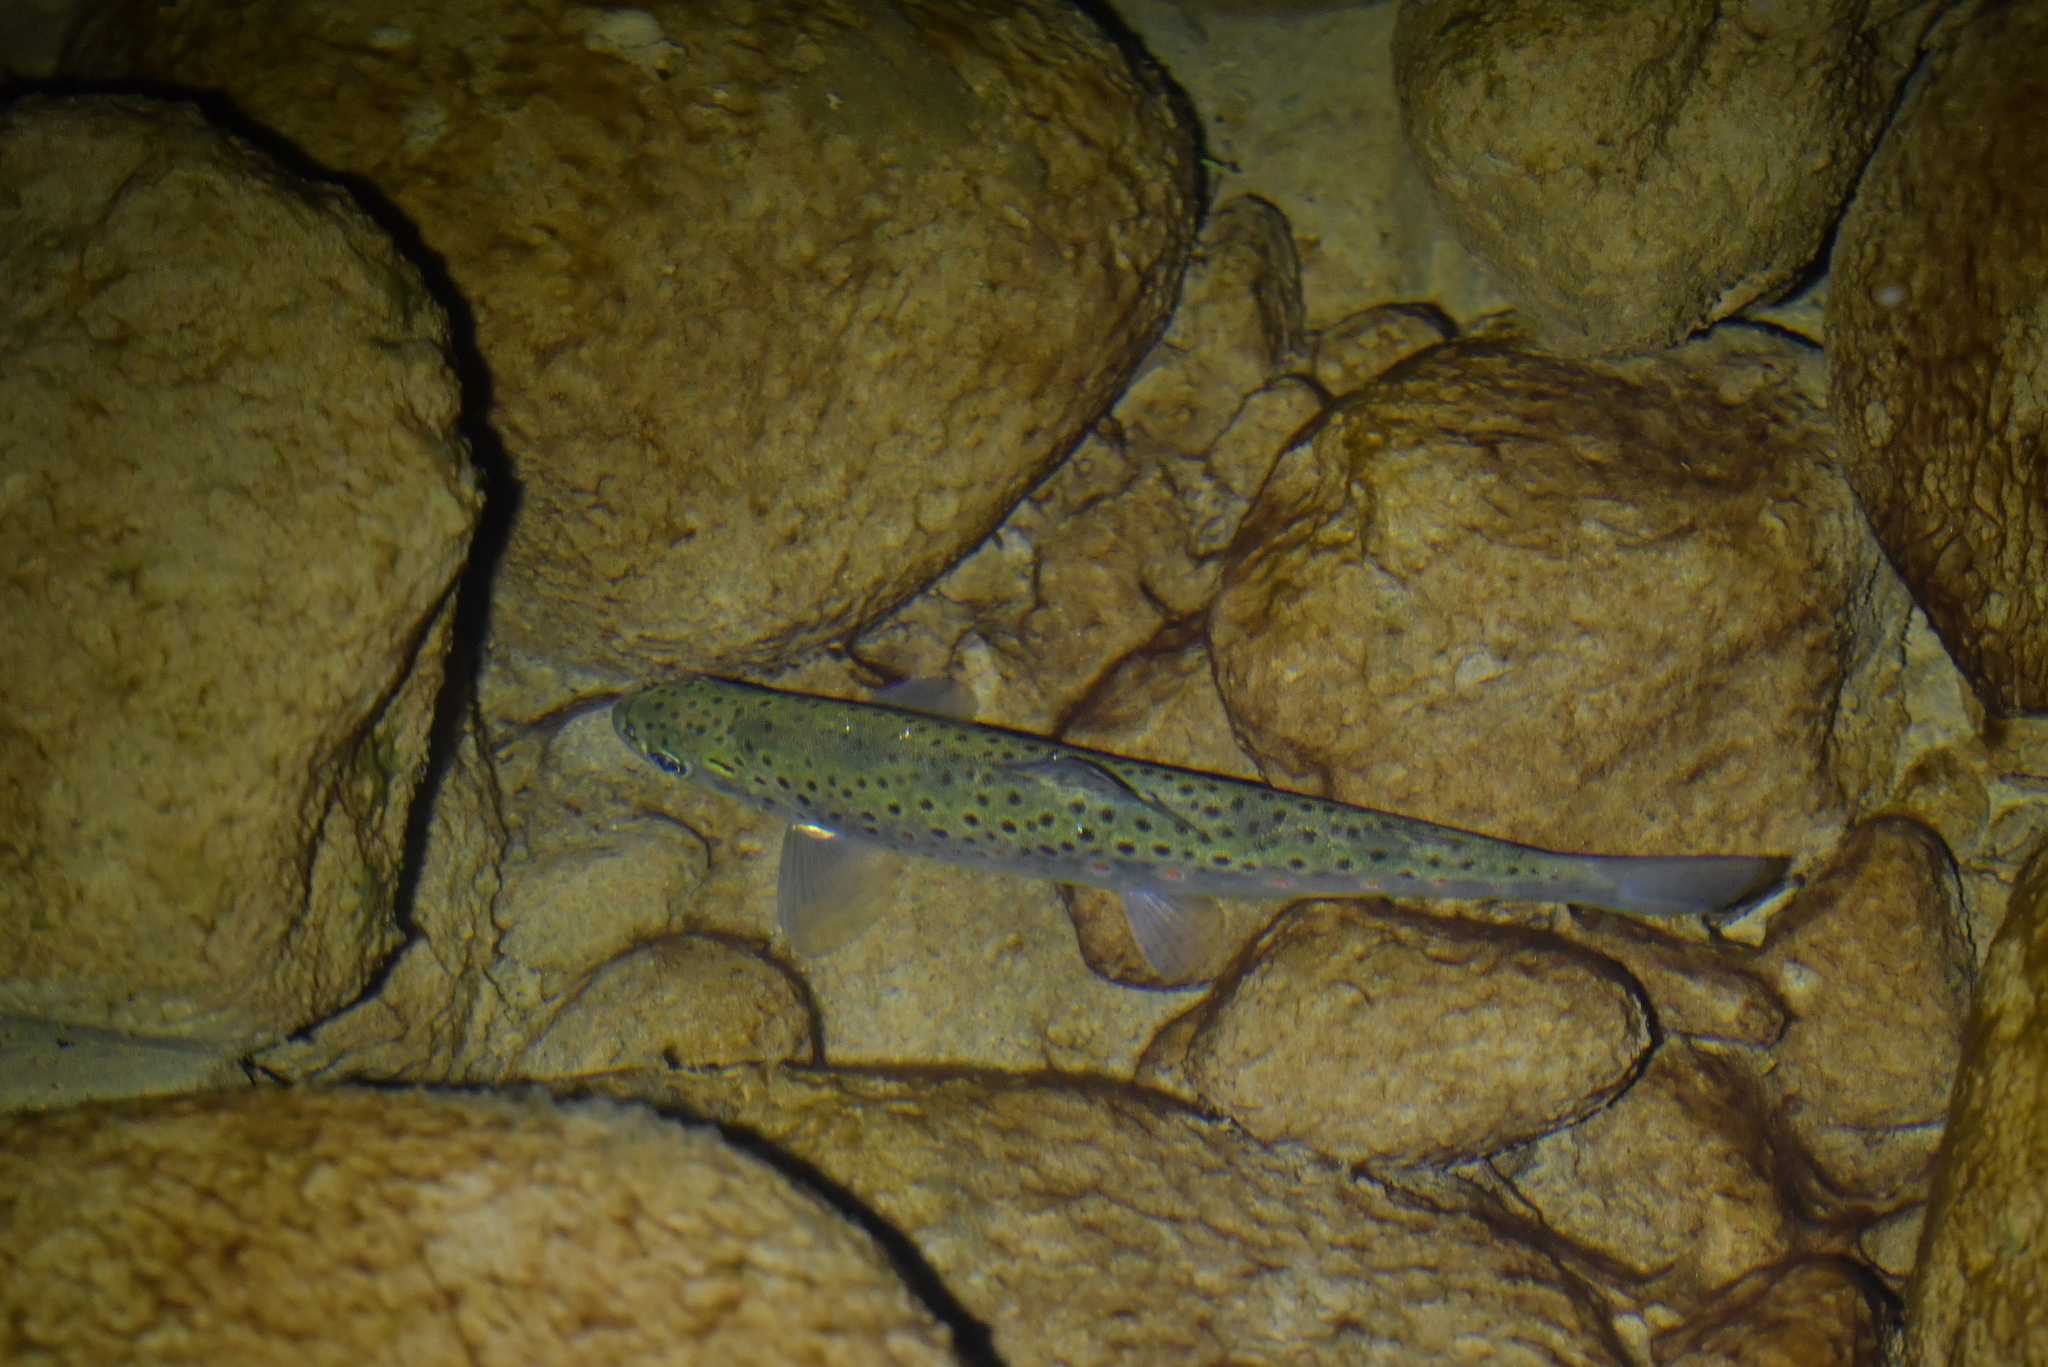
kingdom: Animalia
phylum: Chordata
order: Salmoniformes
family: Salmonidae
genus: Salmo
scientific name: Salmo trutta
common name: Brown trout
